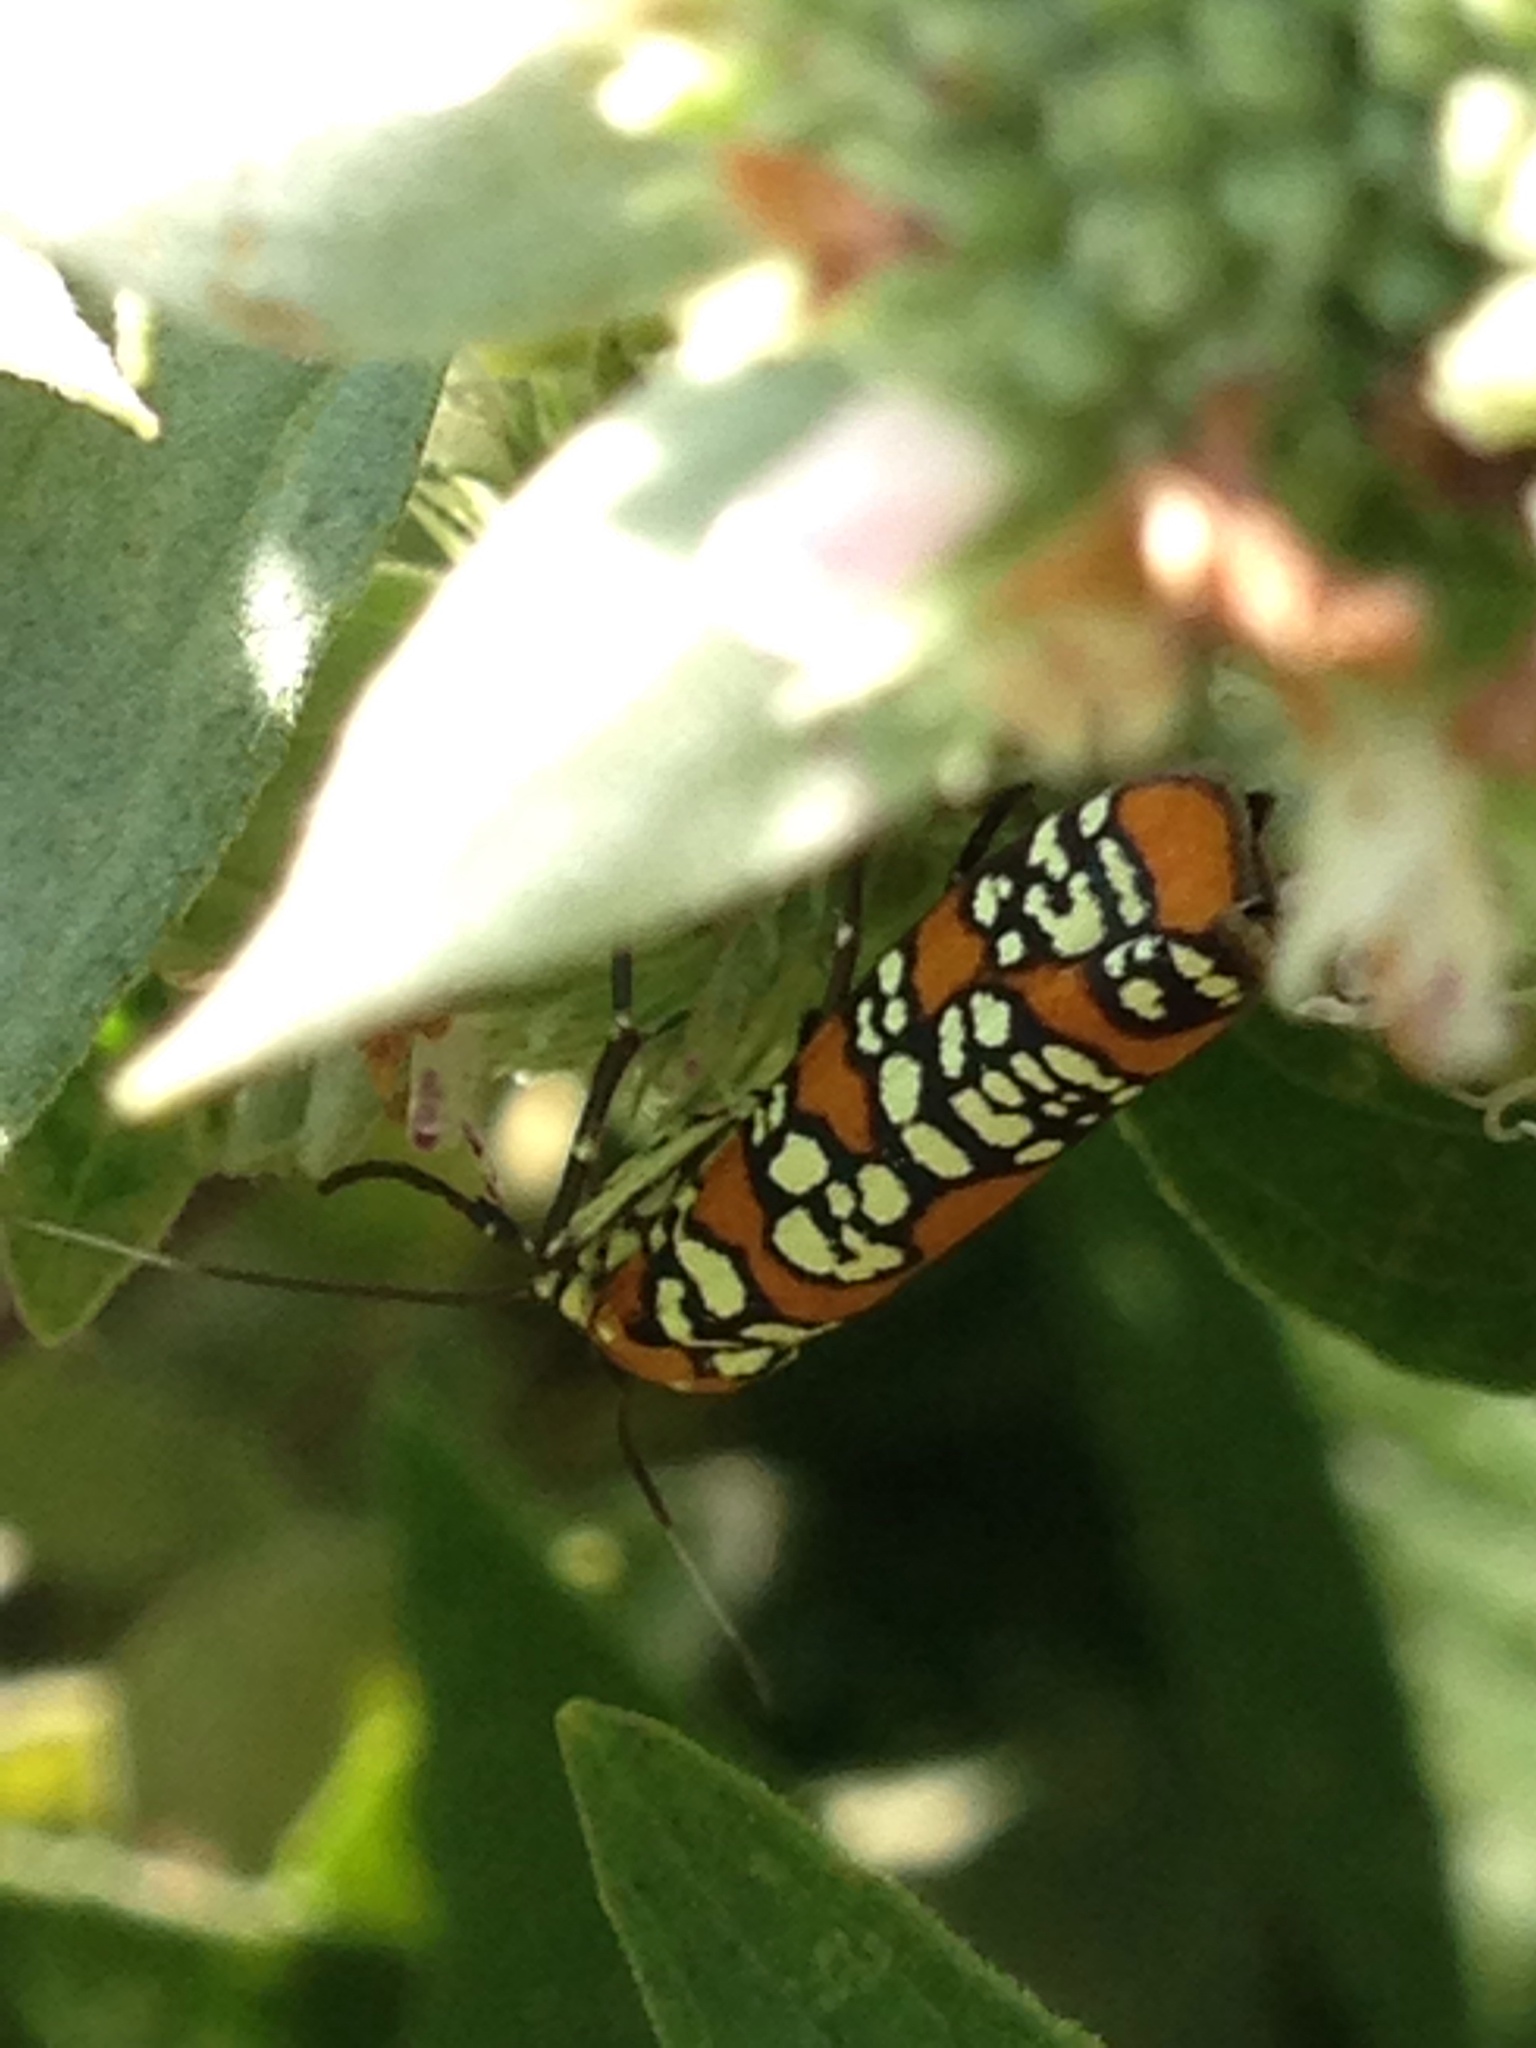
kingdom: Animalia
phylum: Arthropoda
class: Insecta
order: Lepidoptera
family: Attevidae
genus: Atteva
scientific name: Atteva punctella
